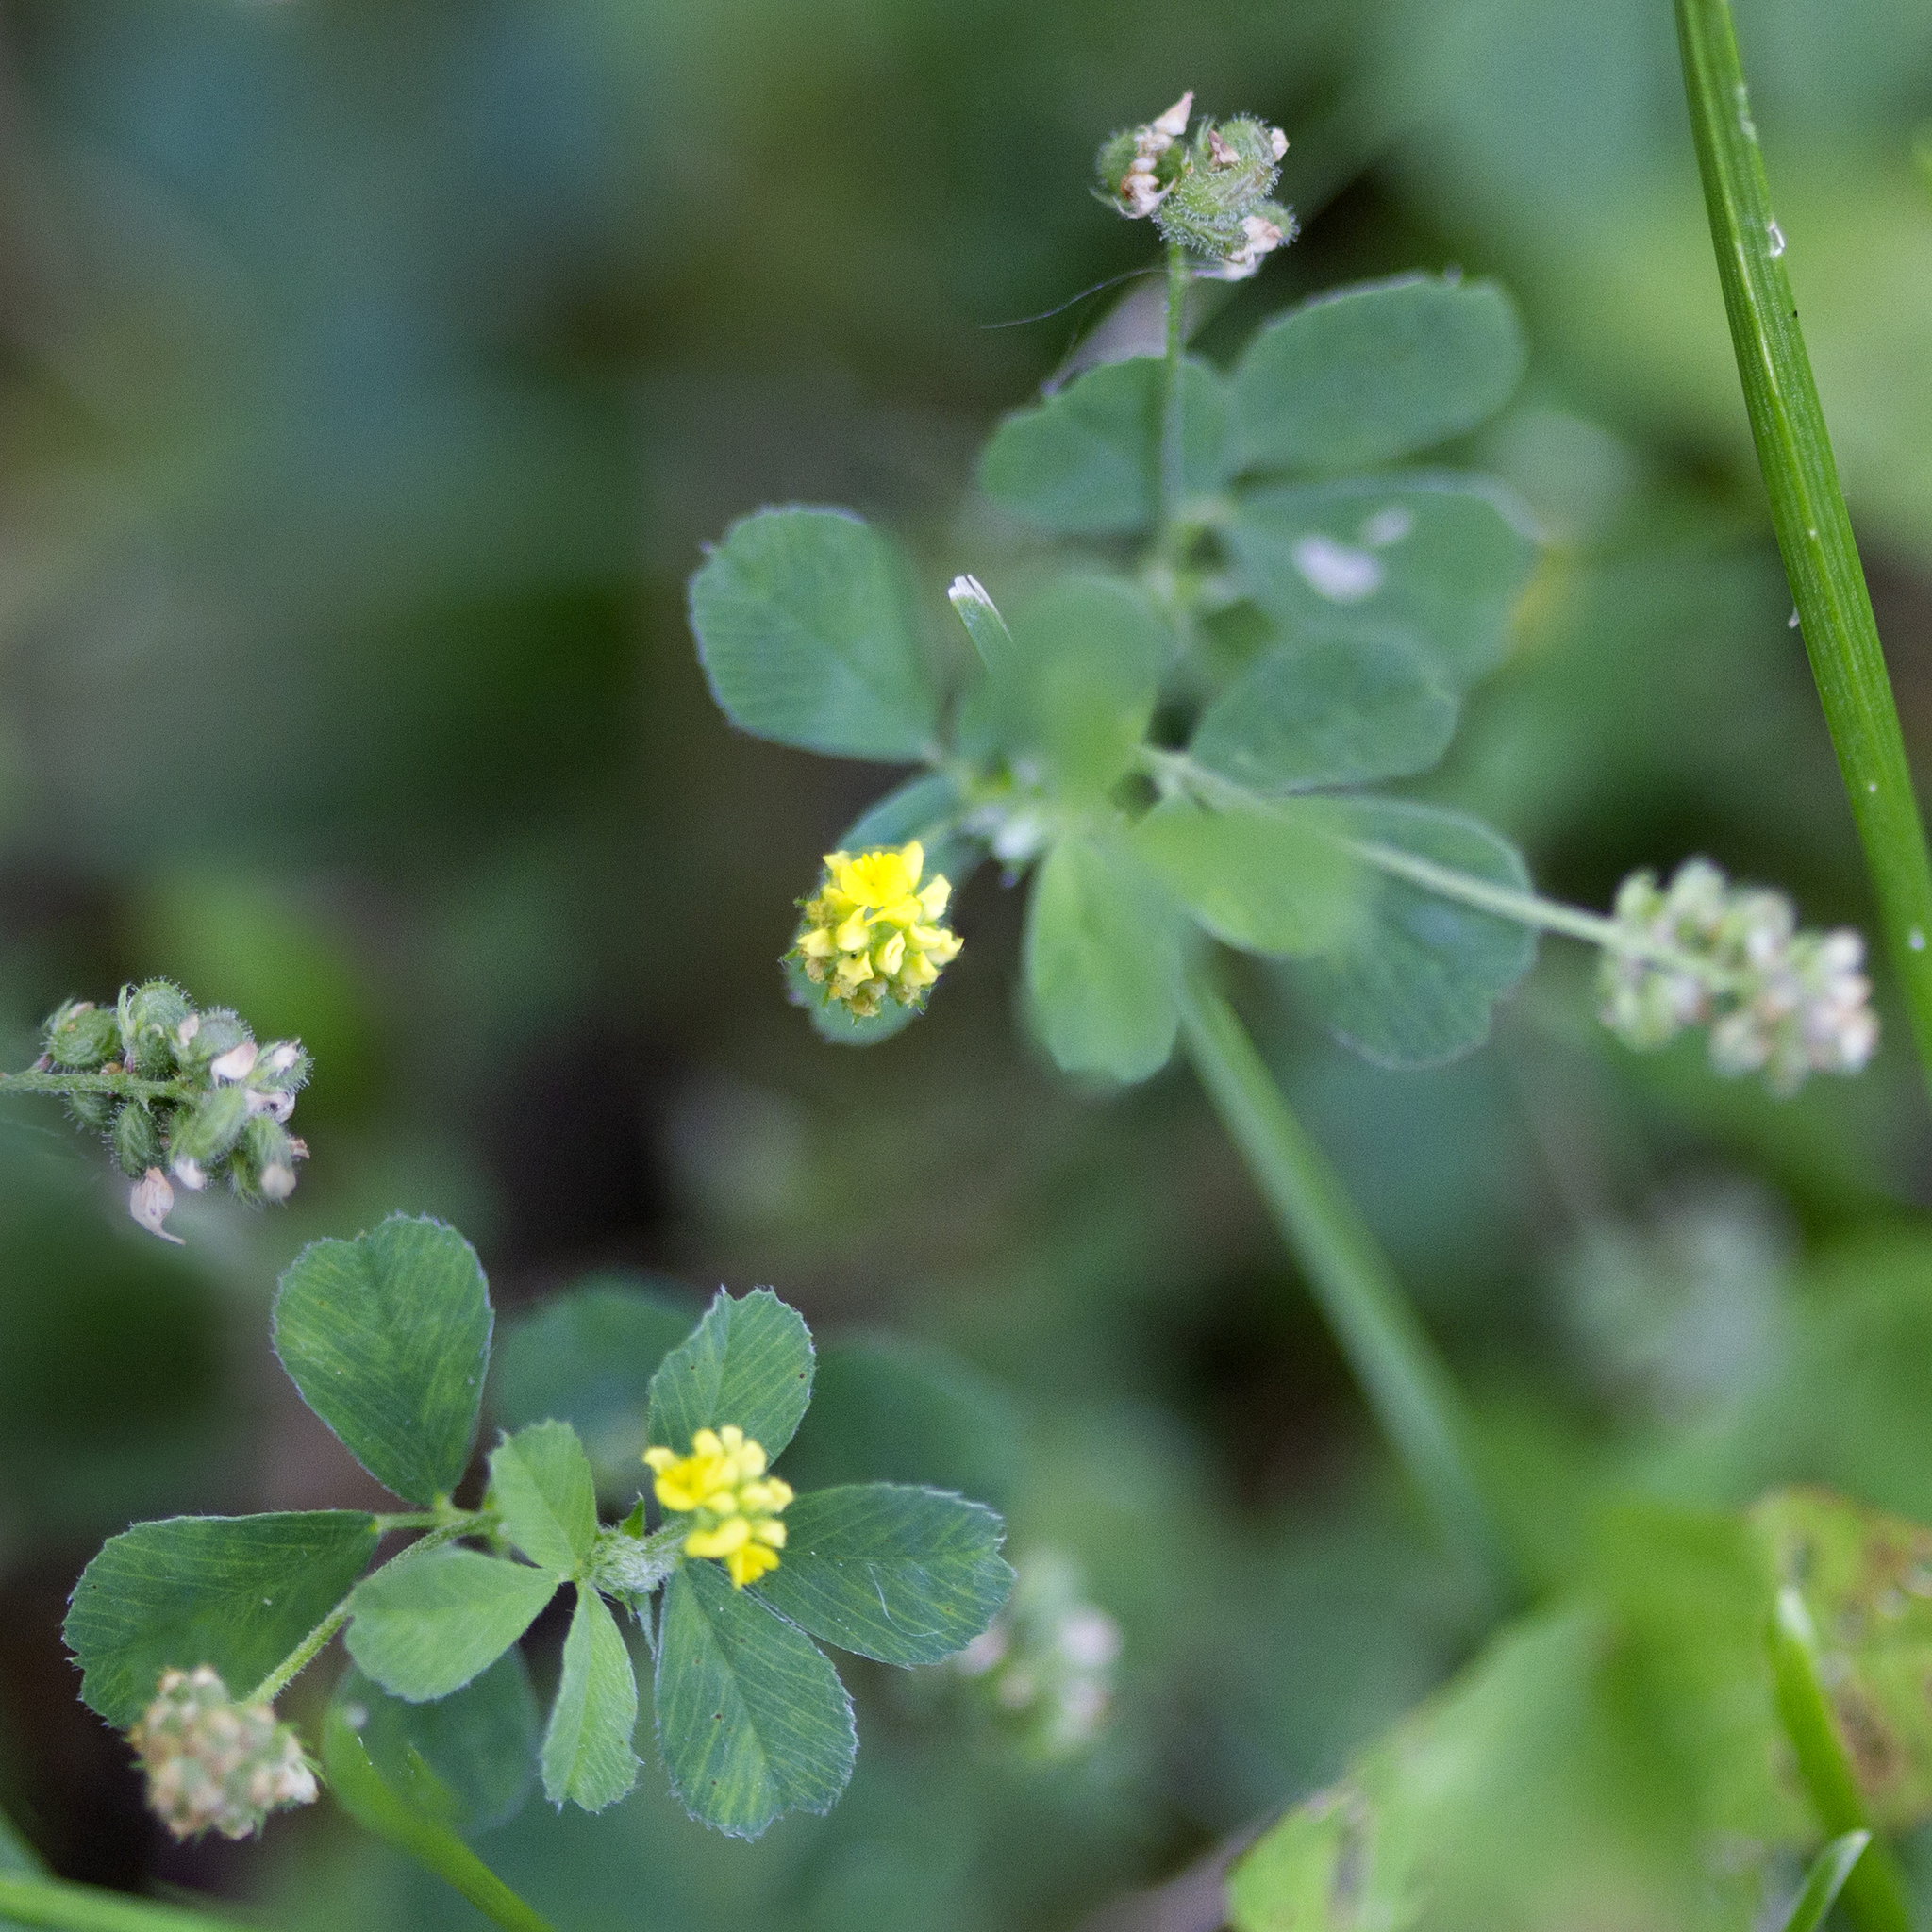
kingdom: Plantae
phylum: Tracheophyta
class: Magnoliopsida
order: Fabales
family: Fabaceae
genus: Medicago
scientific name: Medicago lupulina
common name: Black medick
